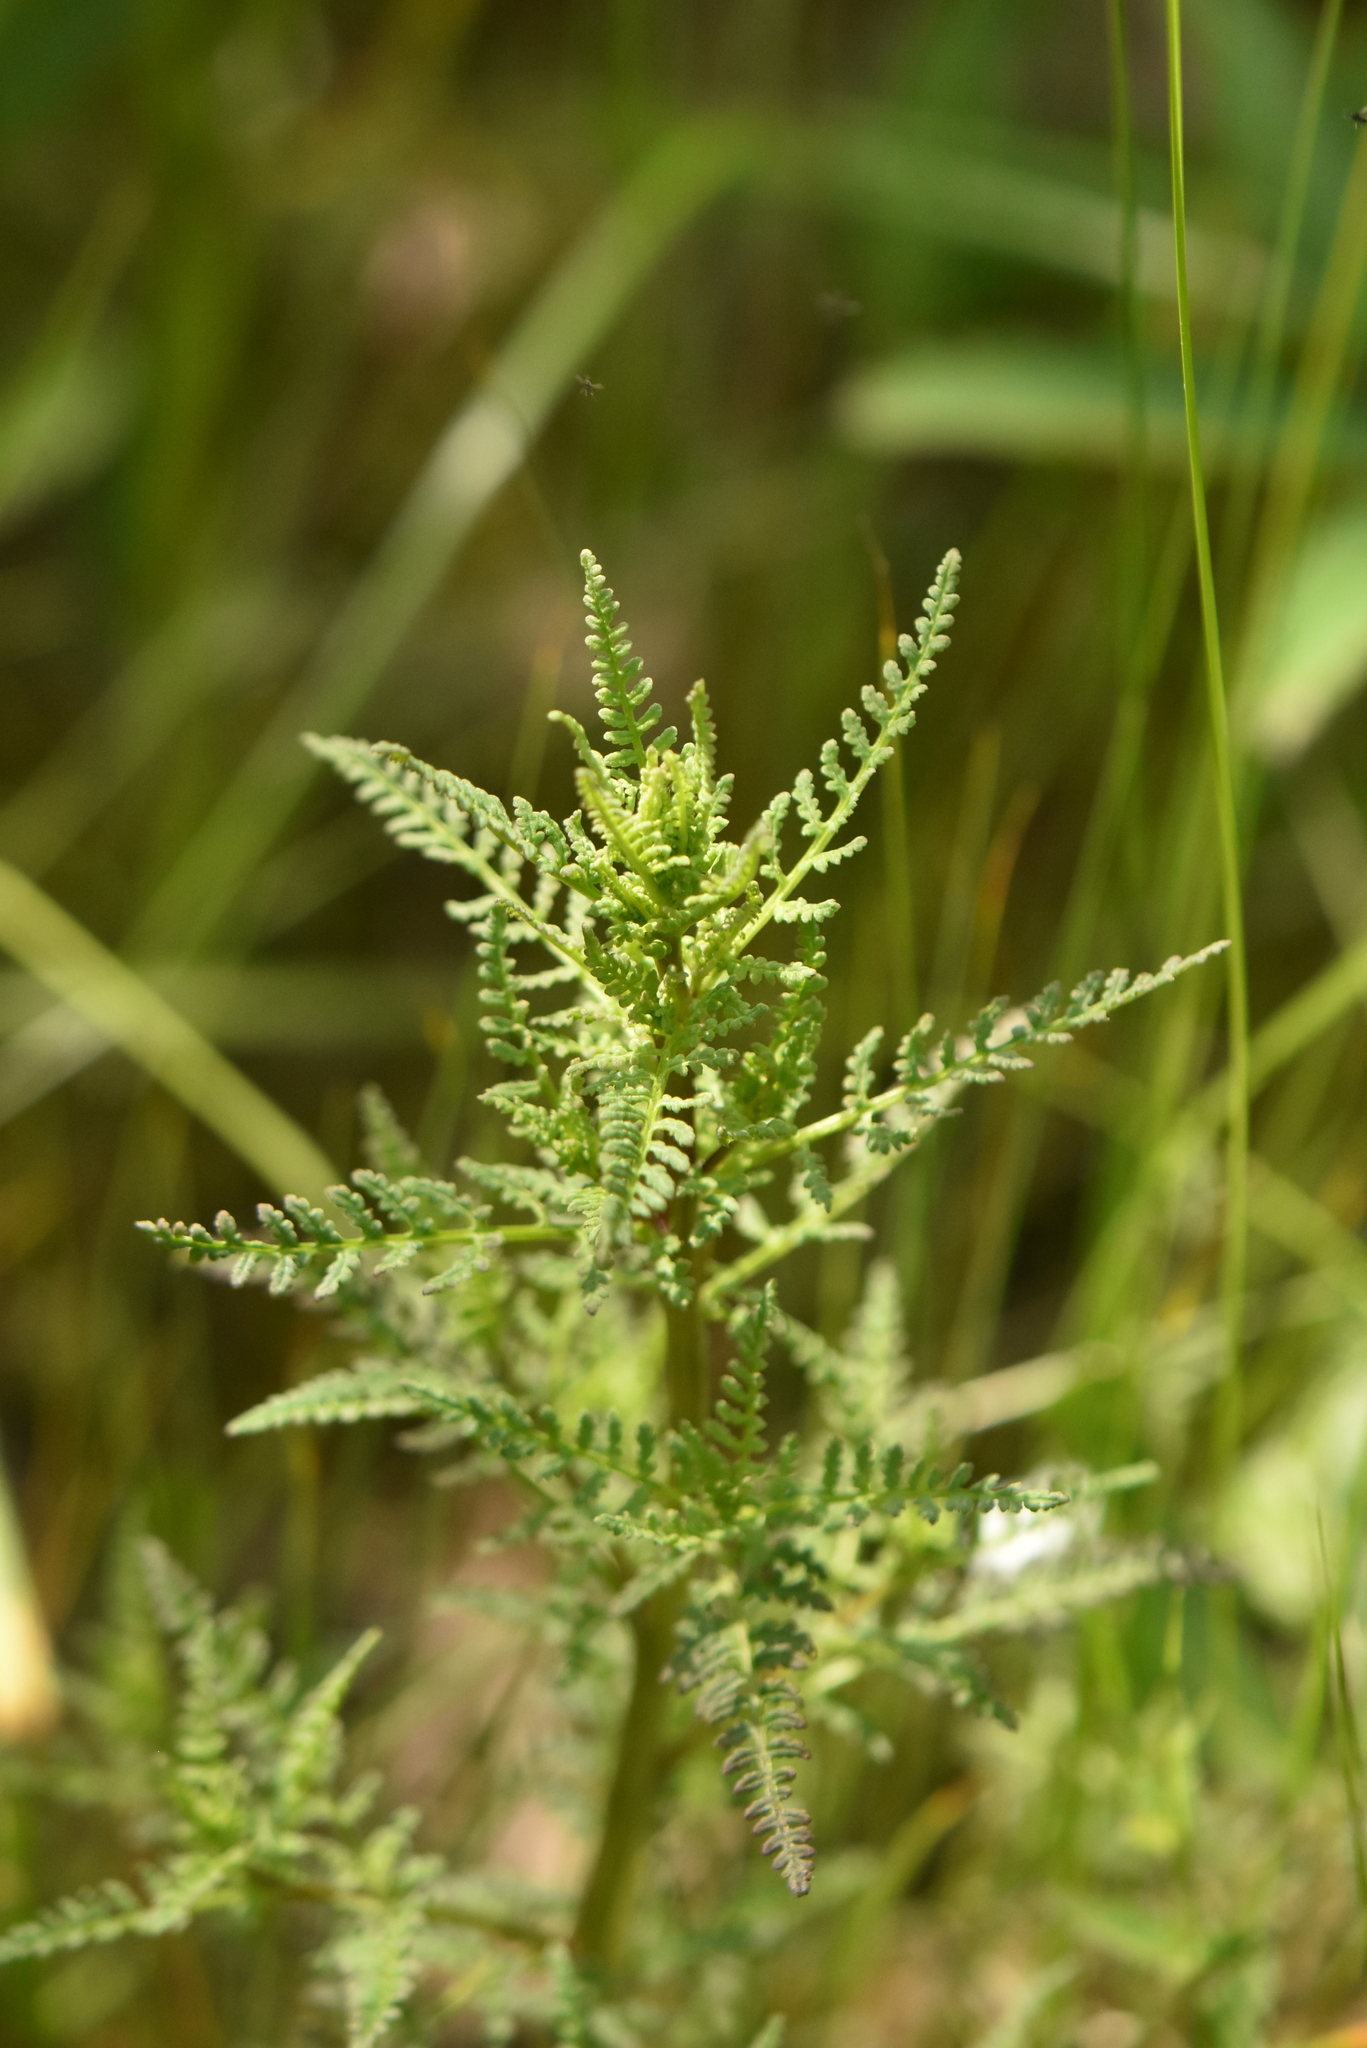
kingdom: Plantae
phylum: Tracheophyta
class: Magnoliopsida
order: Lamiales
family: Orobanchaceae
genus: Pedicularis
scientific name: Pedicularis palustris
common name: Marsh lousewort
